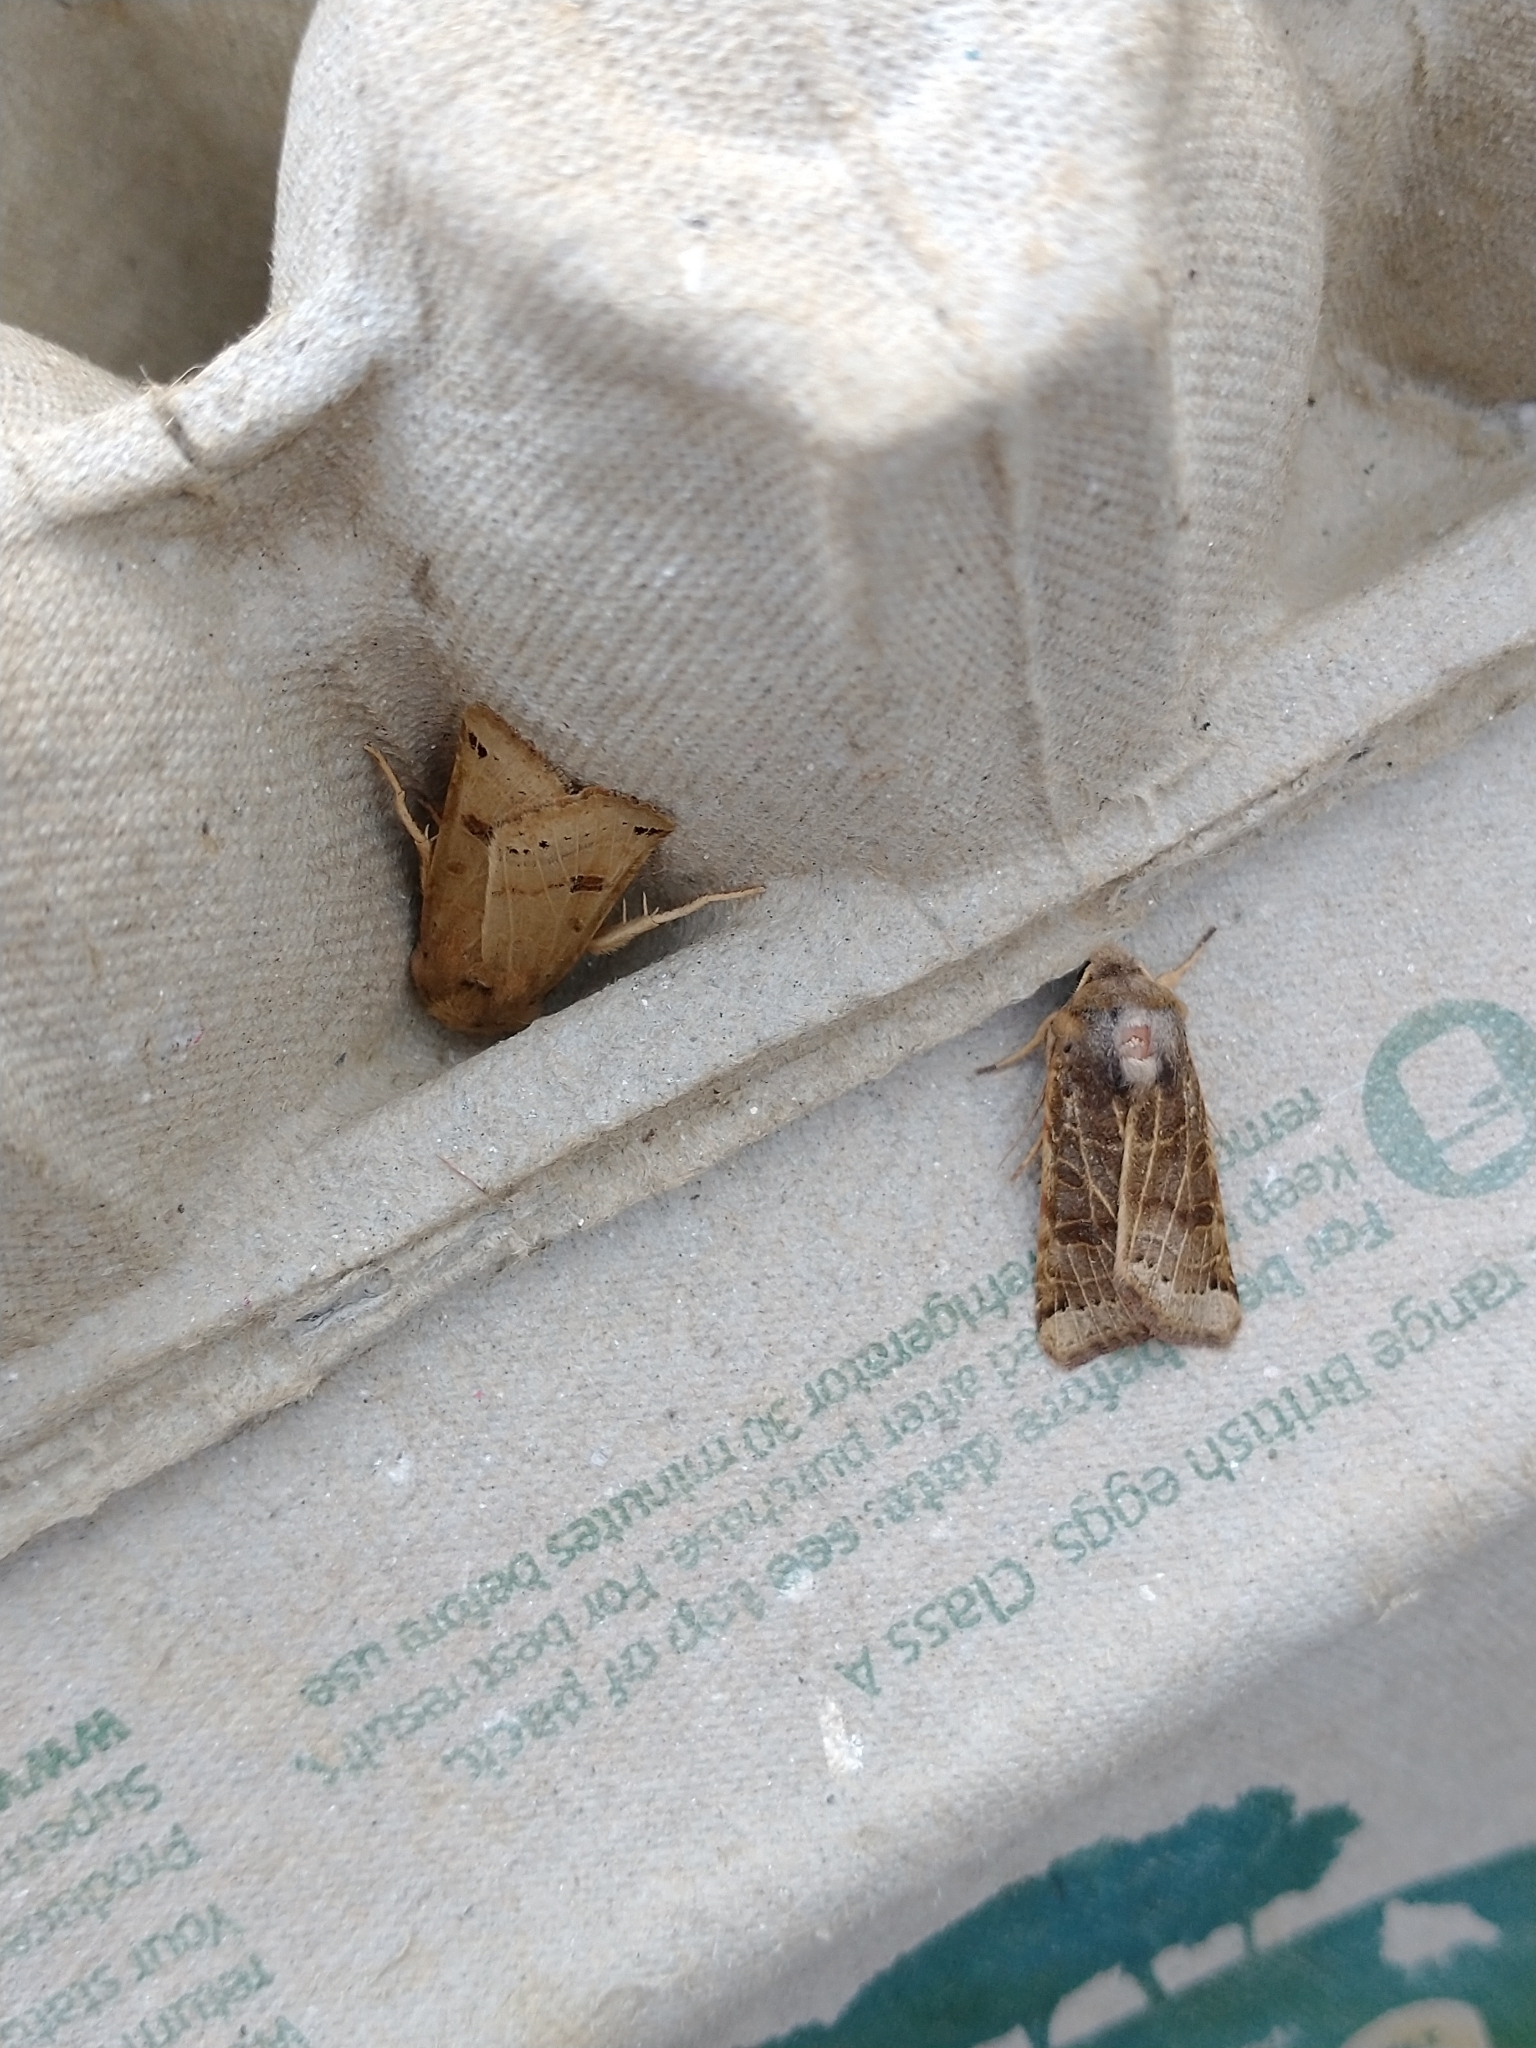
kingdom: Animalia
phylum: Arthropoda
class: Insecta
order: Lepidoptera
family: Noctuidae
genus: Agrochola
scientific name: Agrochola lunosa
